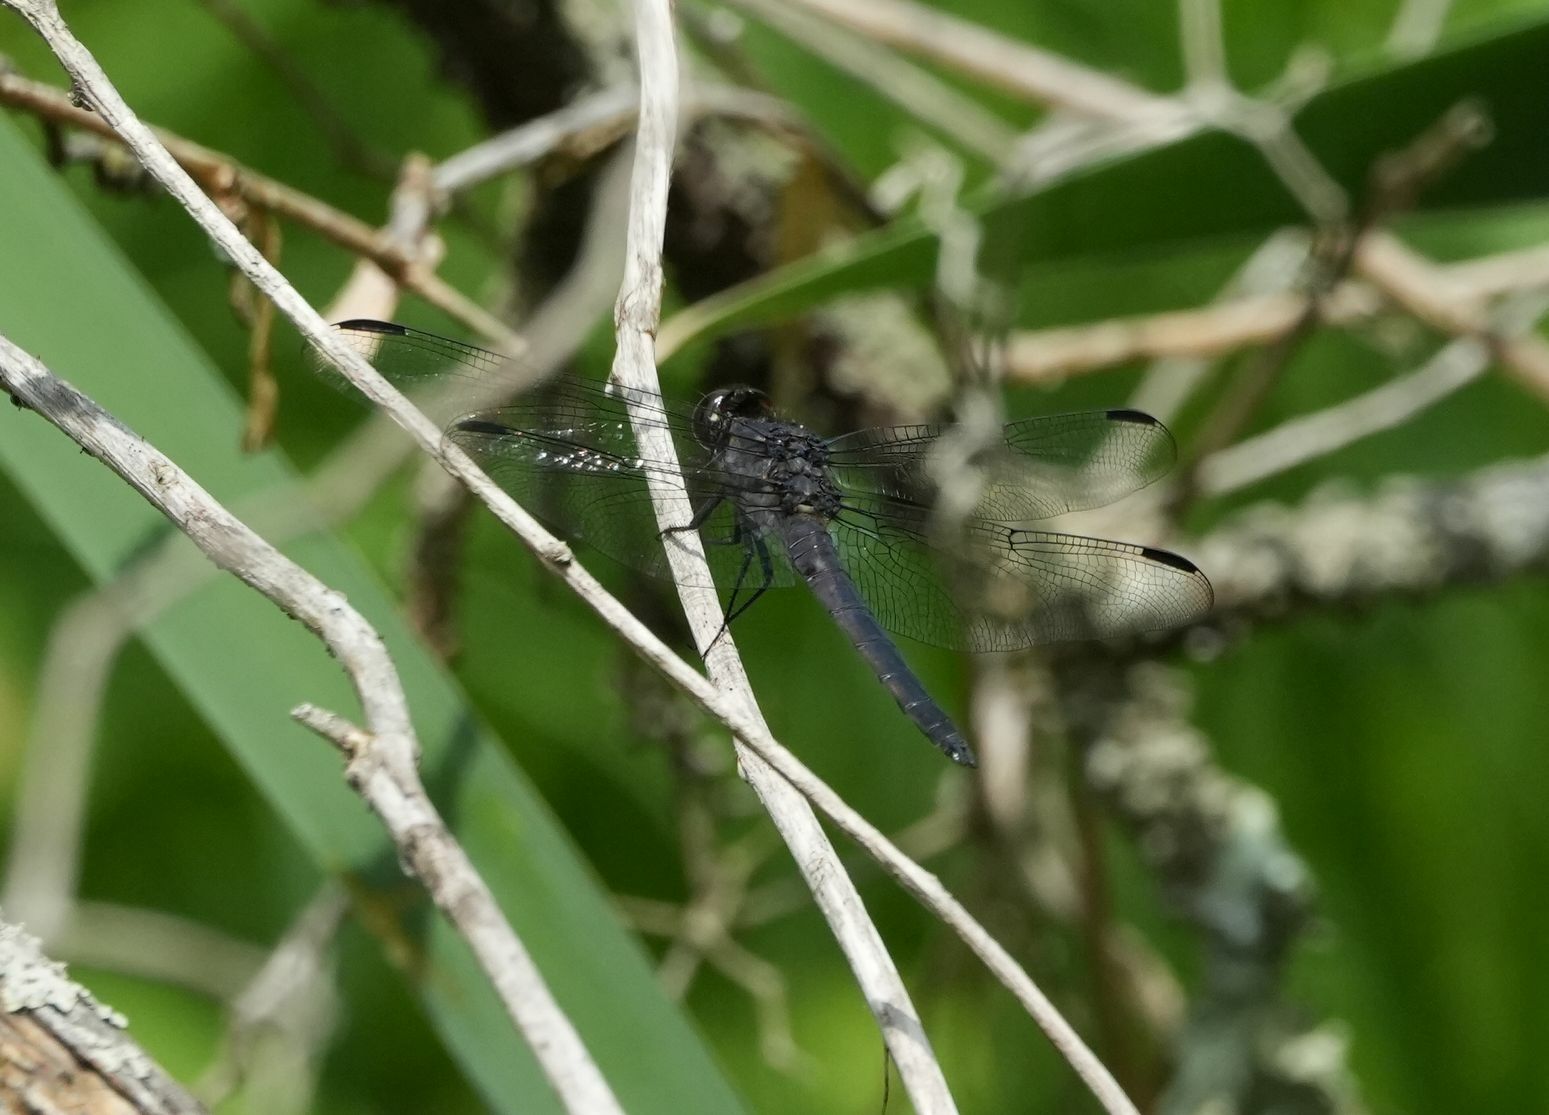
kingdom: Animalia
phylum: Arthropoda
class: Insecta
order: Odonata
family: Libellulidae
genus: Libellula
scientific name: Libellula incesta
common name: Slaty skimmer
